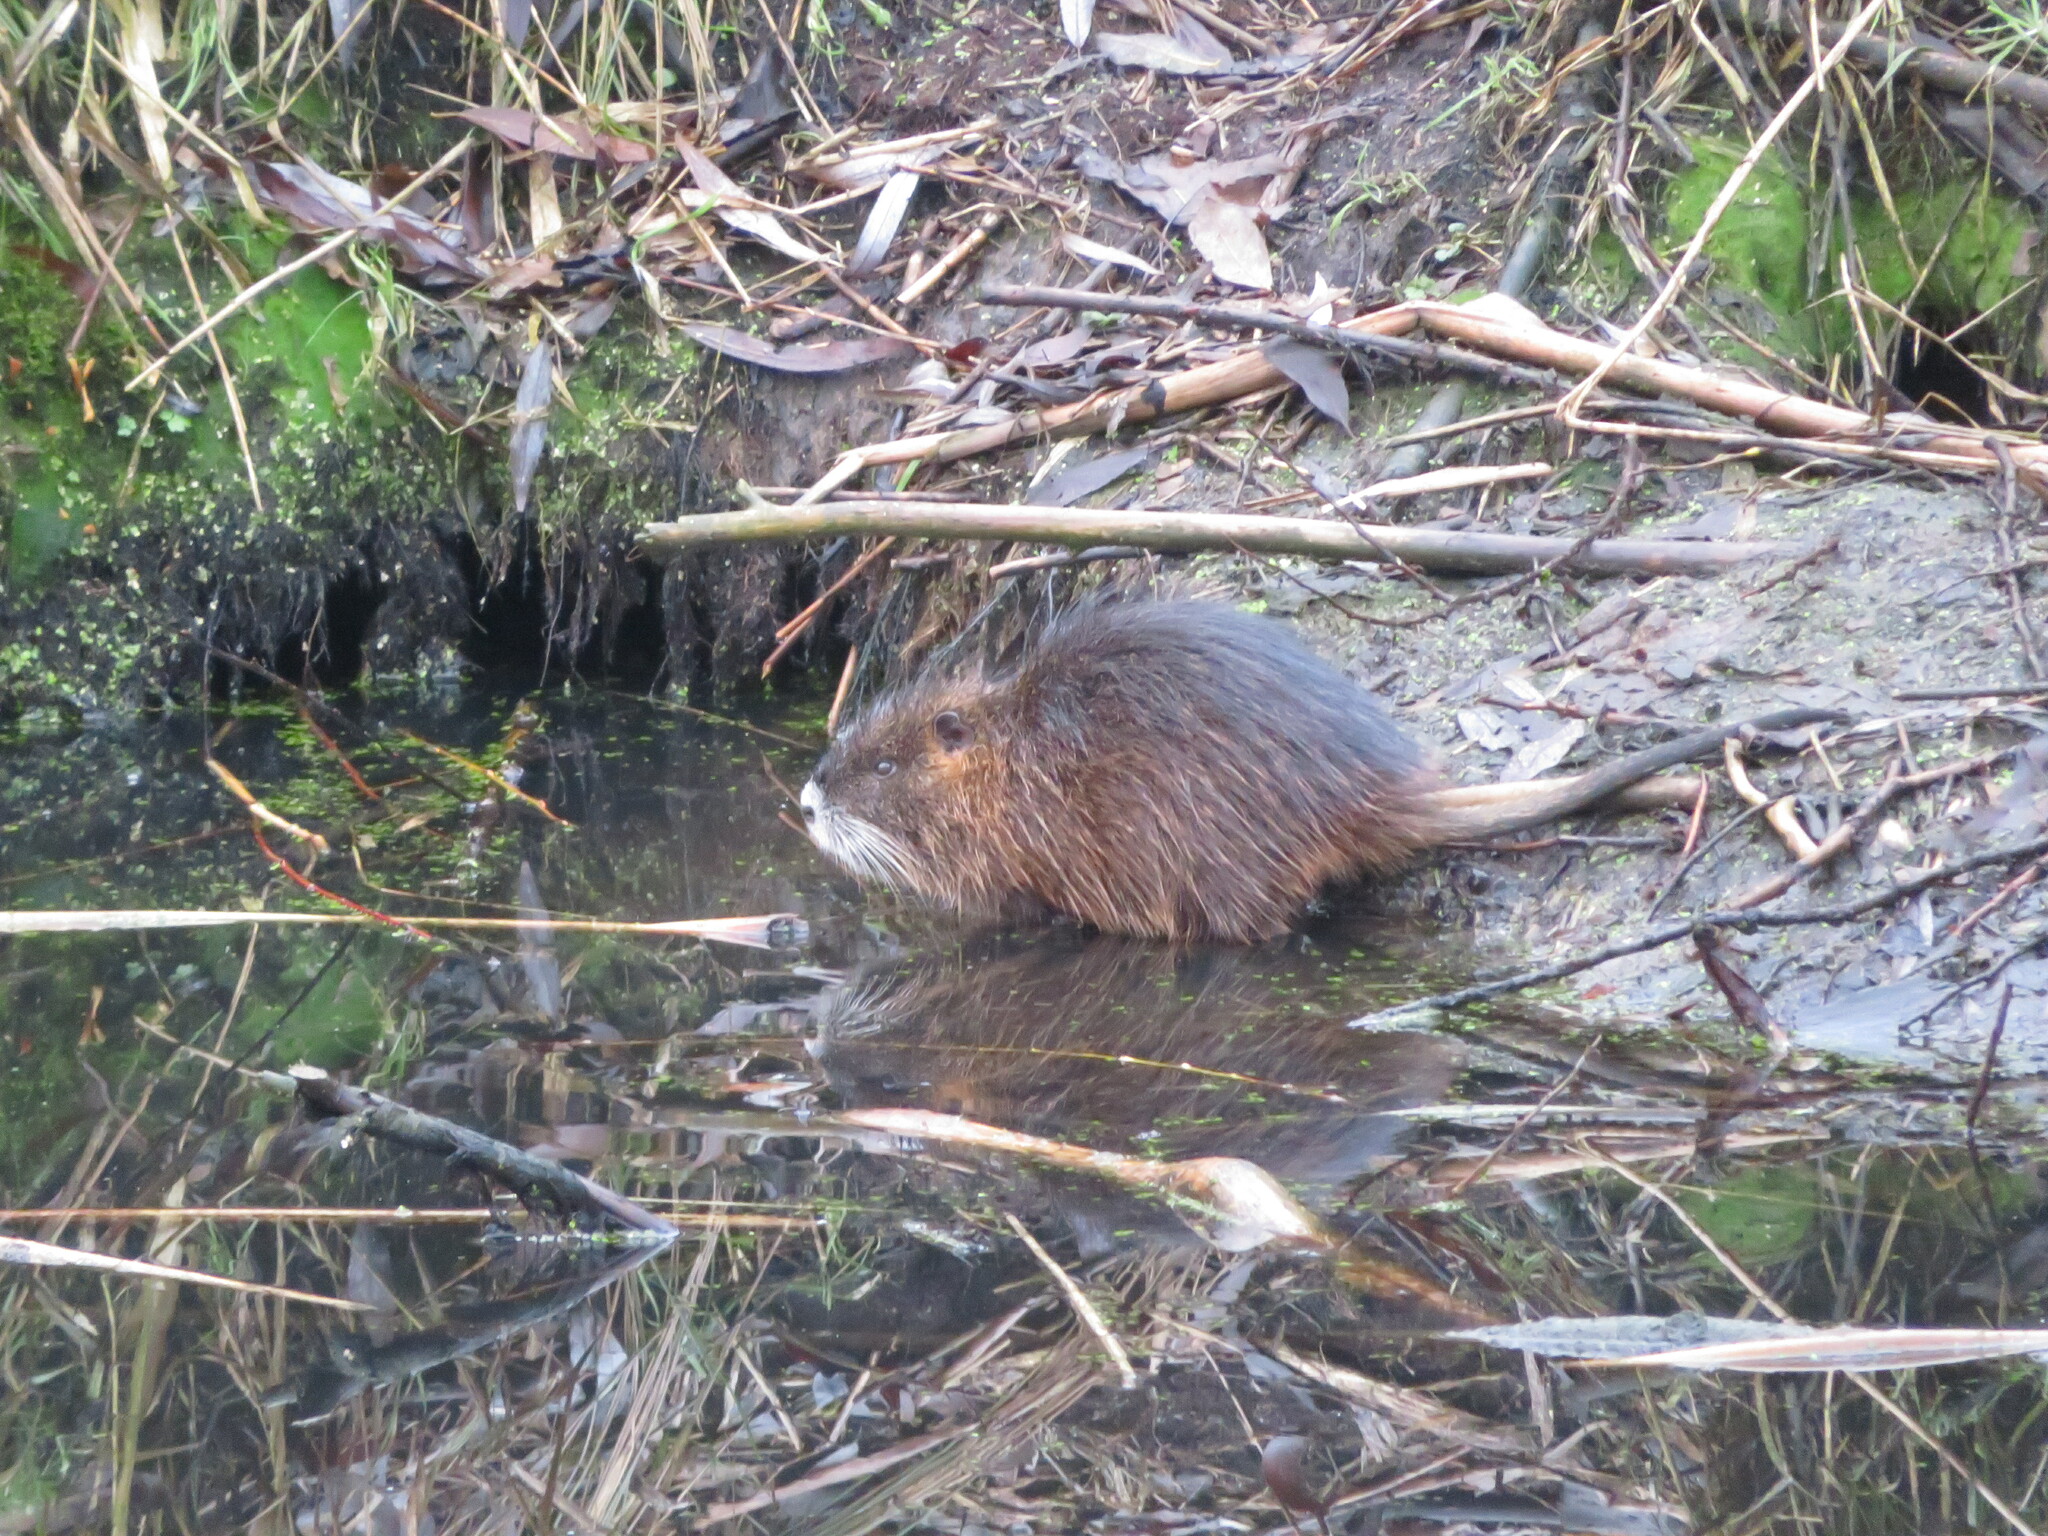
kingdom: Animalia
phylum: Chordata
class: Mammalia
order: Rodentia
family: Myocastoridae
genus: Myocastor
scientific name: Myocastor coypus
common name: Coypu
